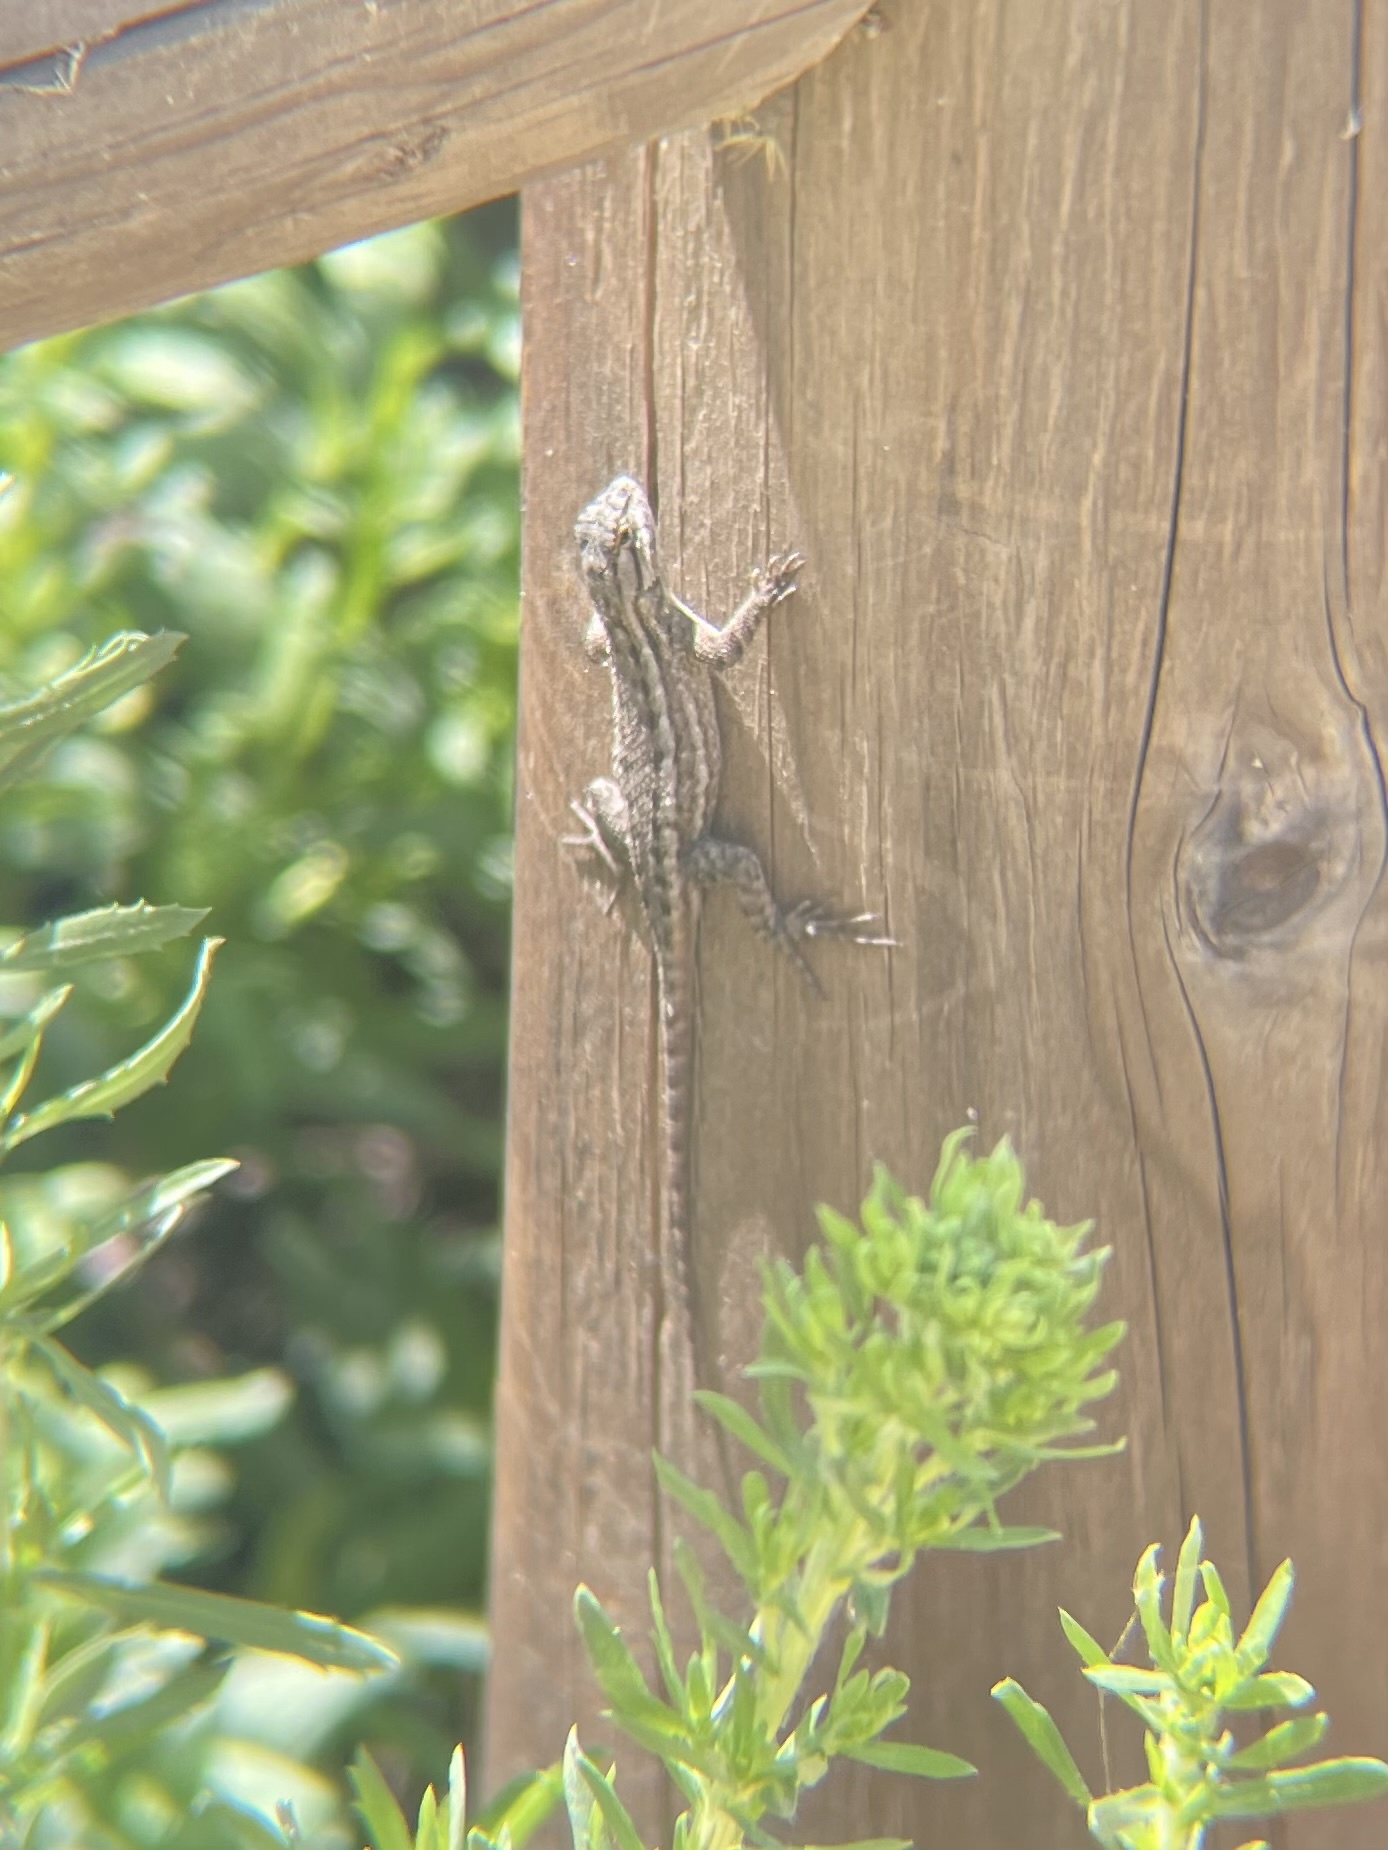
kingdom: Animalia
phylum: Chordata
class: Squamata
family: Phrynosomatidae
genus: Sceloporus
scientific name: Sceloporus occidentalis
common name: Western fence lizard
